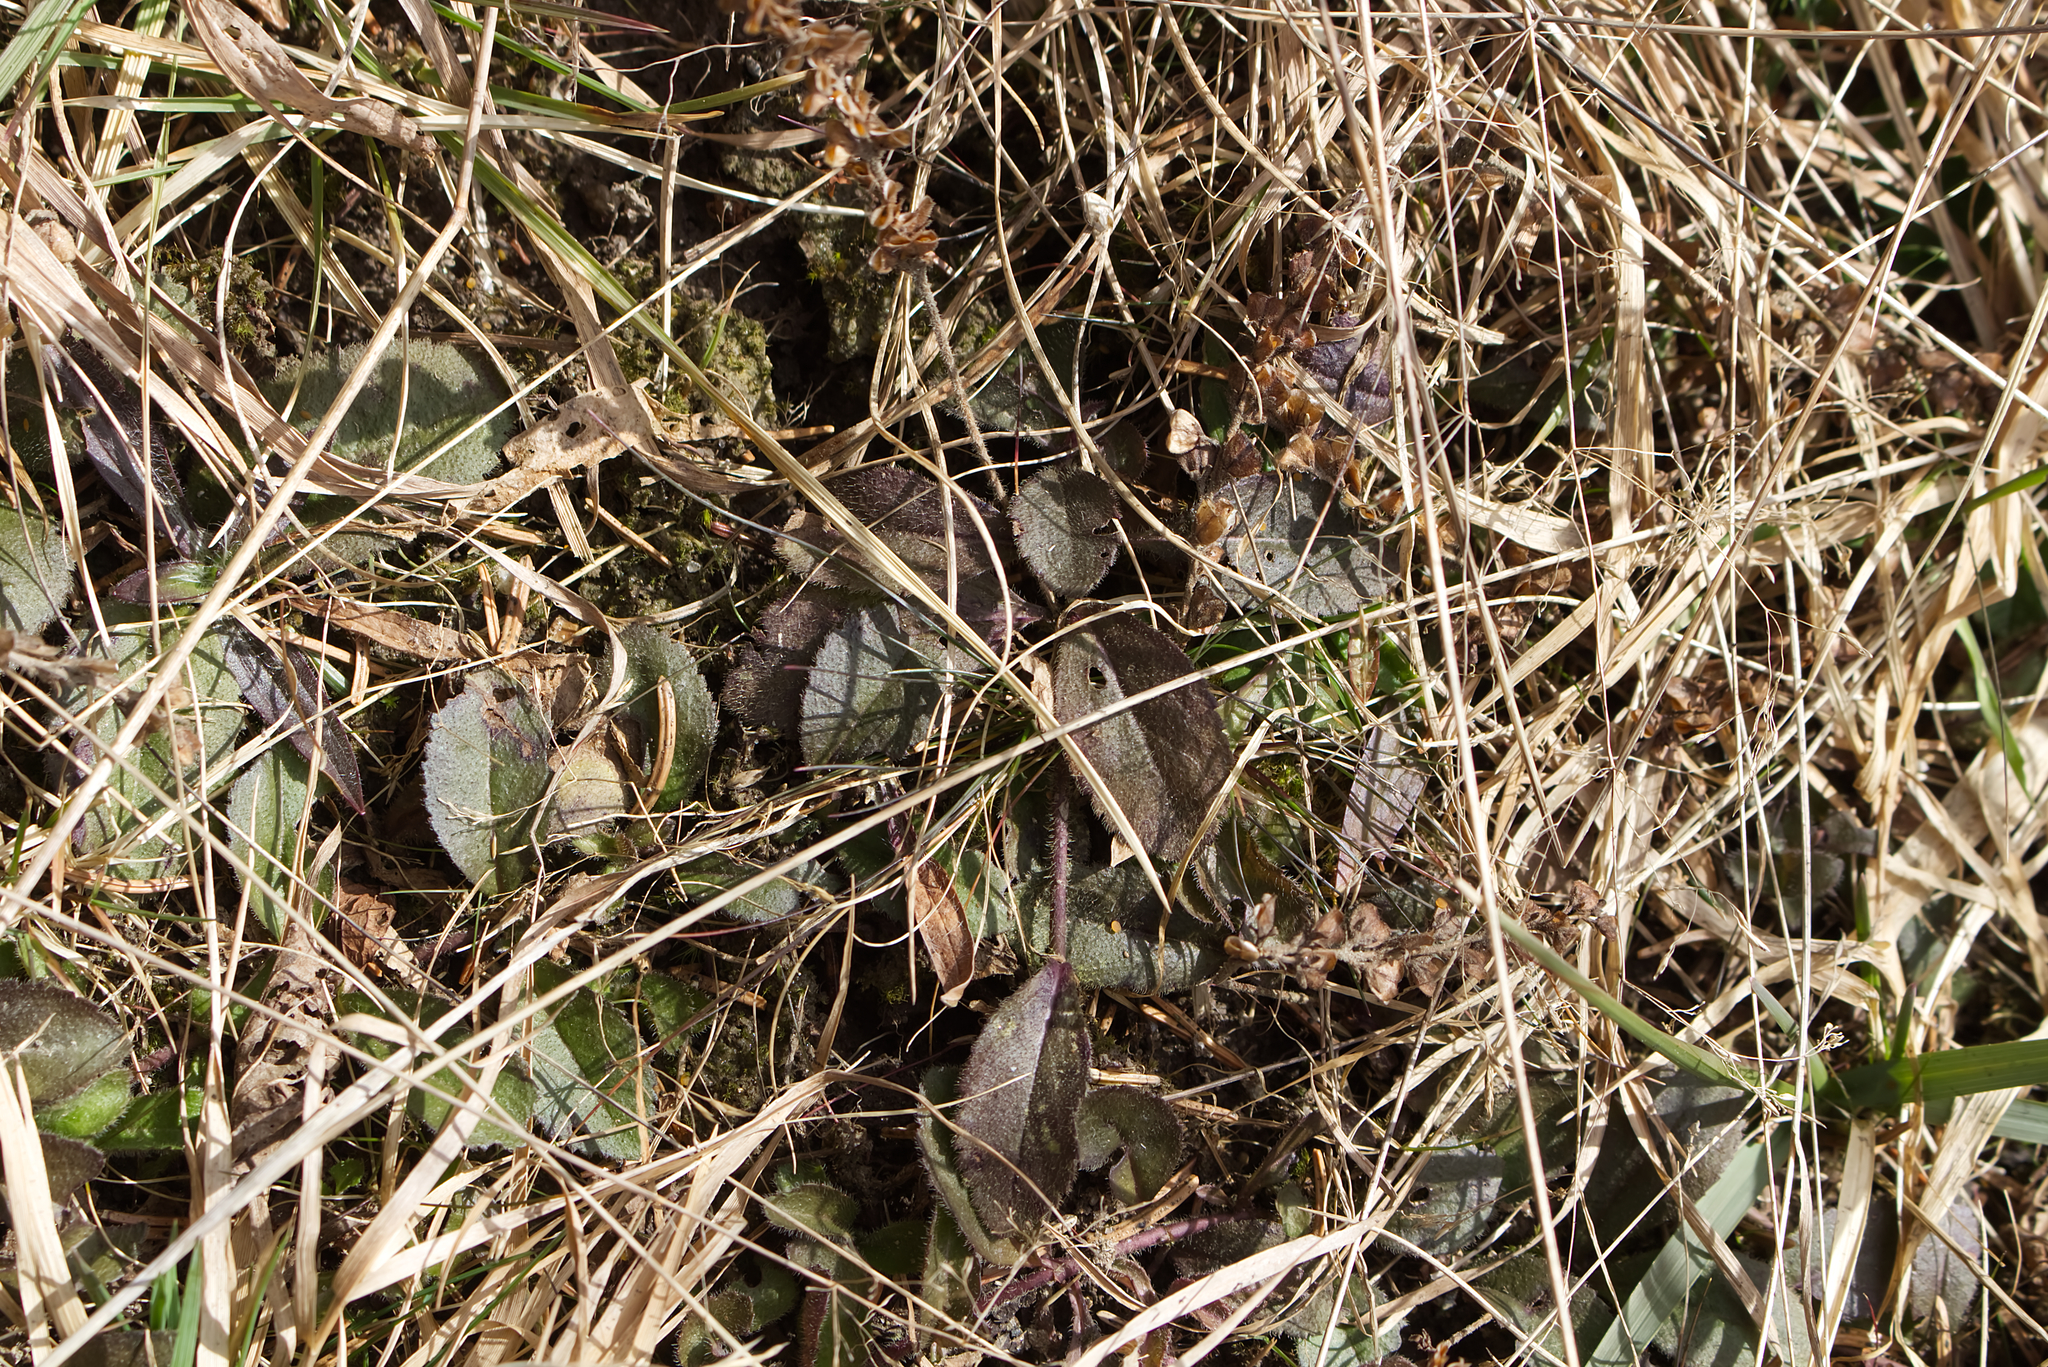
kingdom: Plantae
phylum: Tracheophyta
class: Magnoliopsida
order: Lamiales
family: Plantaginaceae
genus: Veronica
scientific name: Veronica officinalis
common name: Common speedwell
